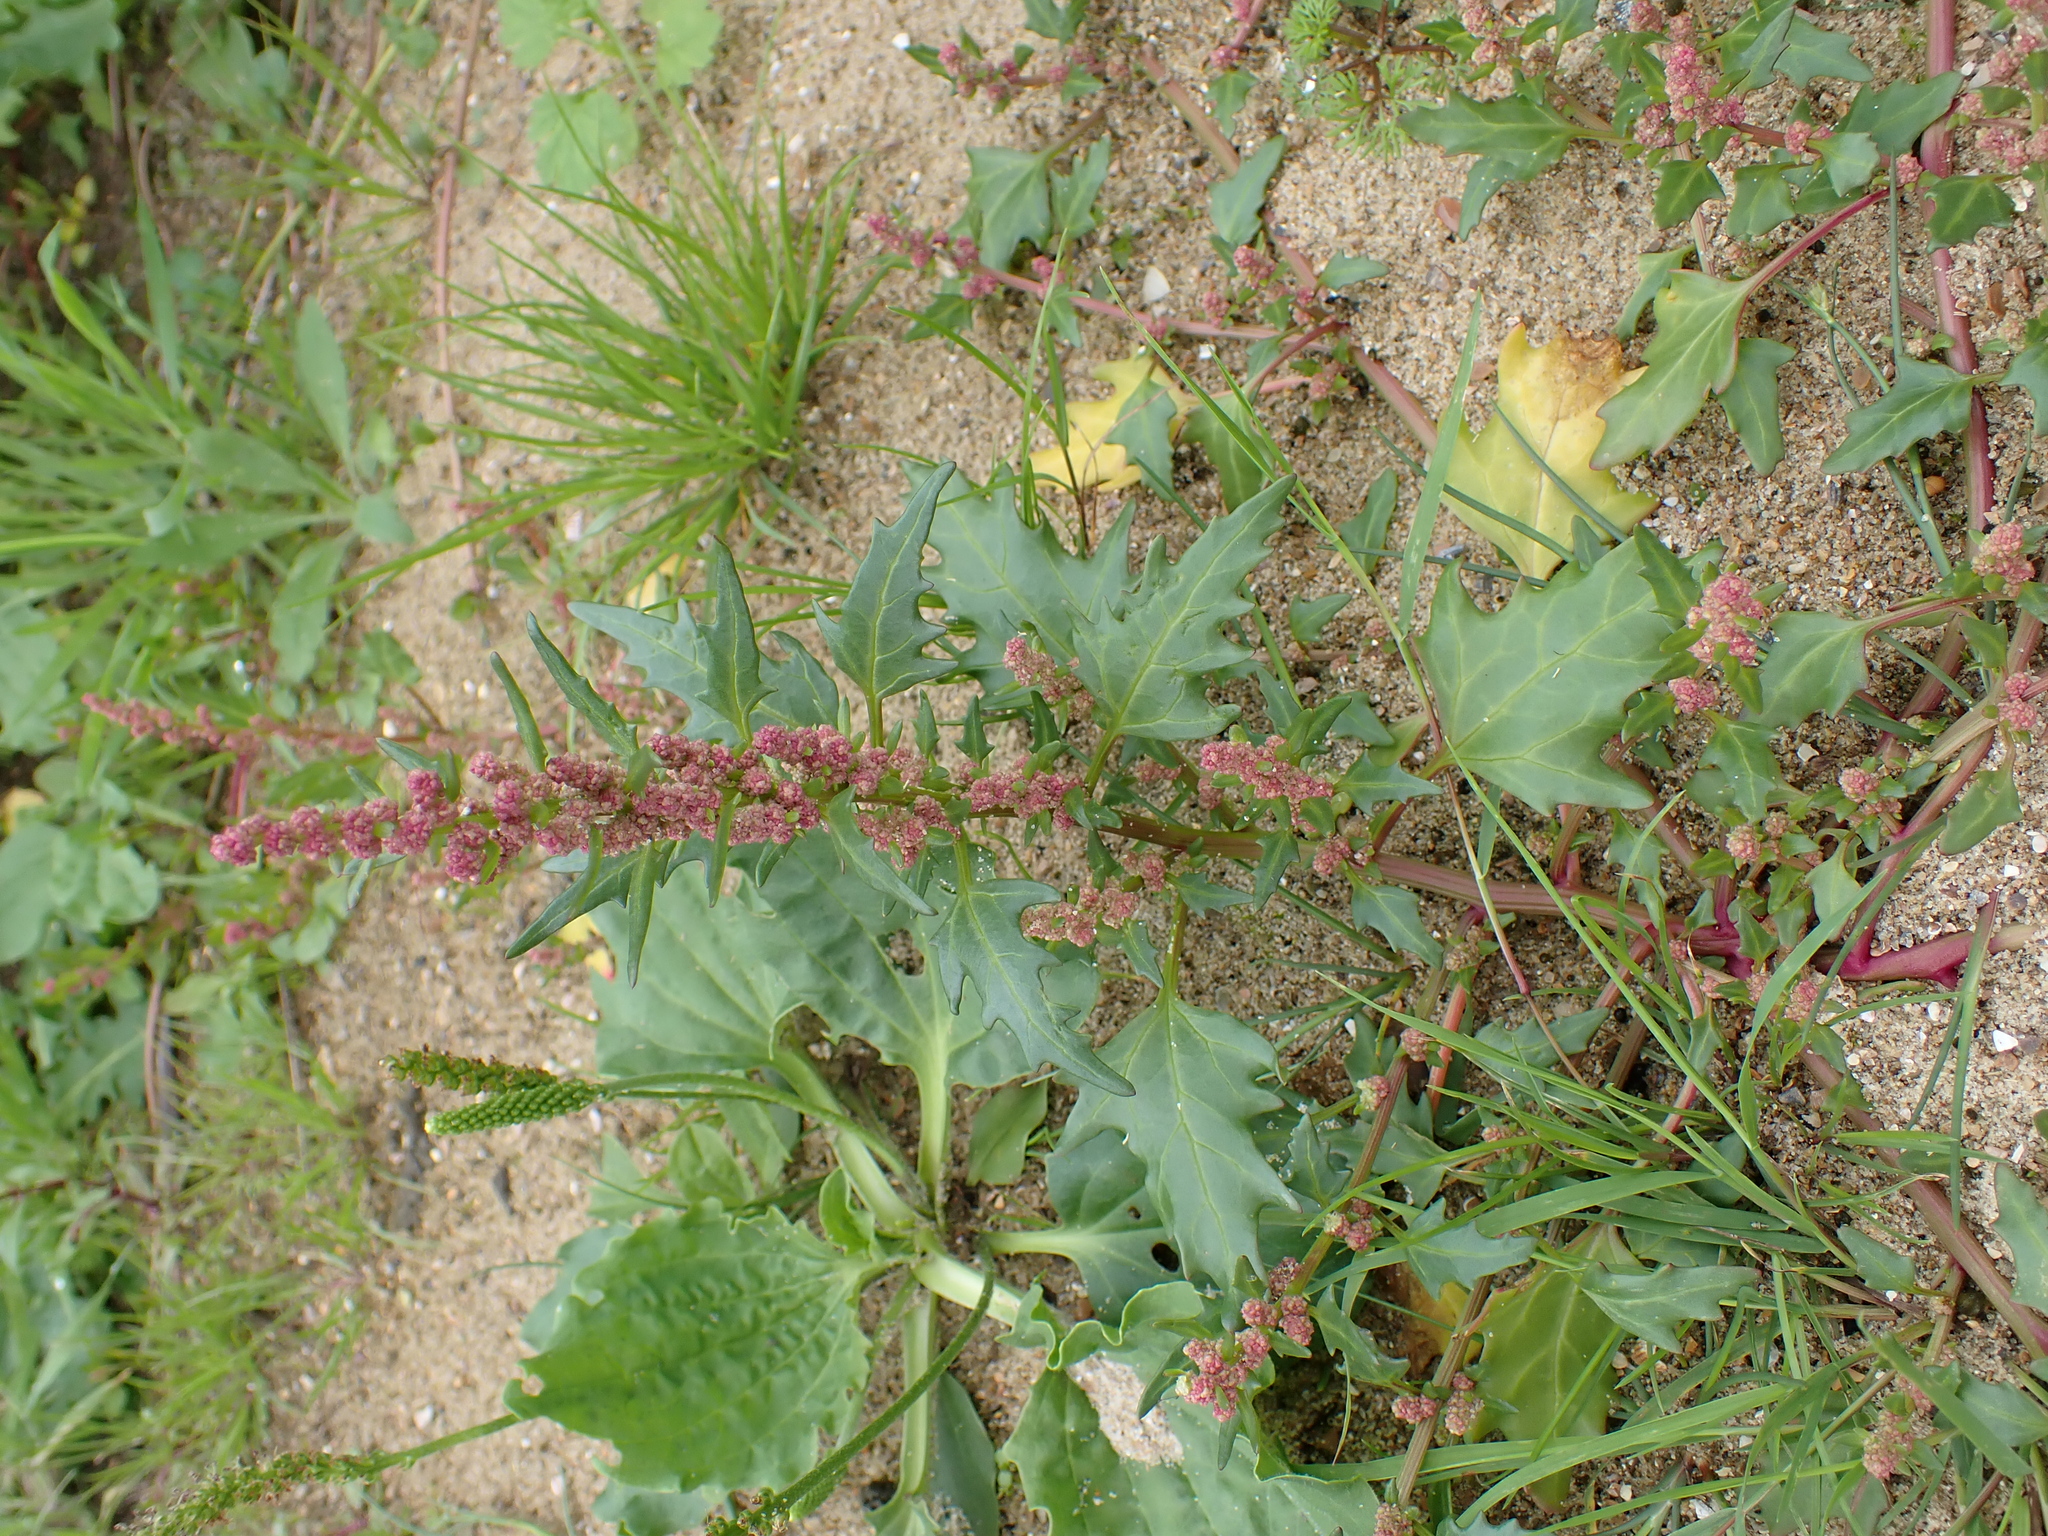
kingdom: Plantae
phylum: Tracheophyta
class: Magnoliopsida
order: Caryophyllales
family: Amaranthaceae
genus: Oxybasis
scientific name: Oxybasis rubra
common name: Red goosefoot
